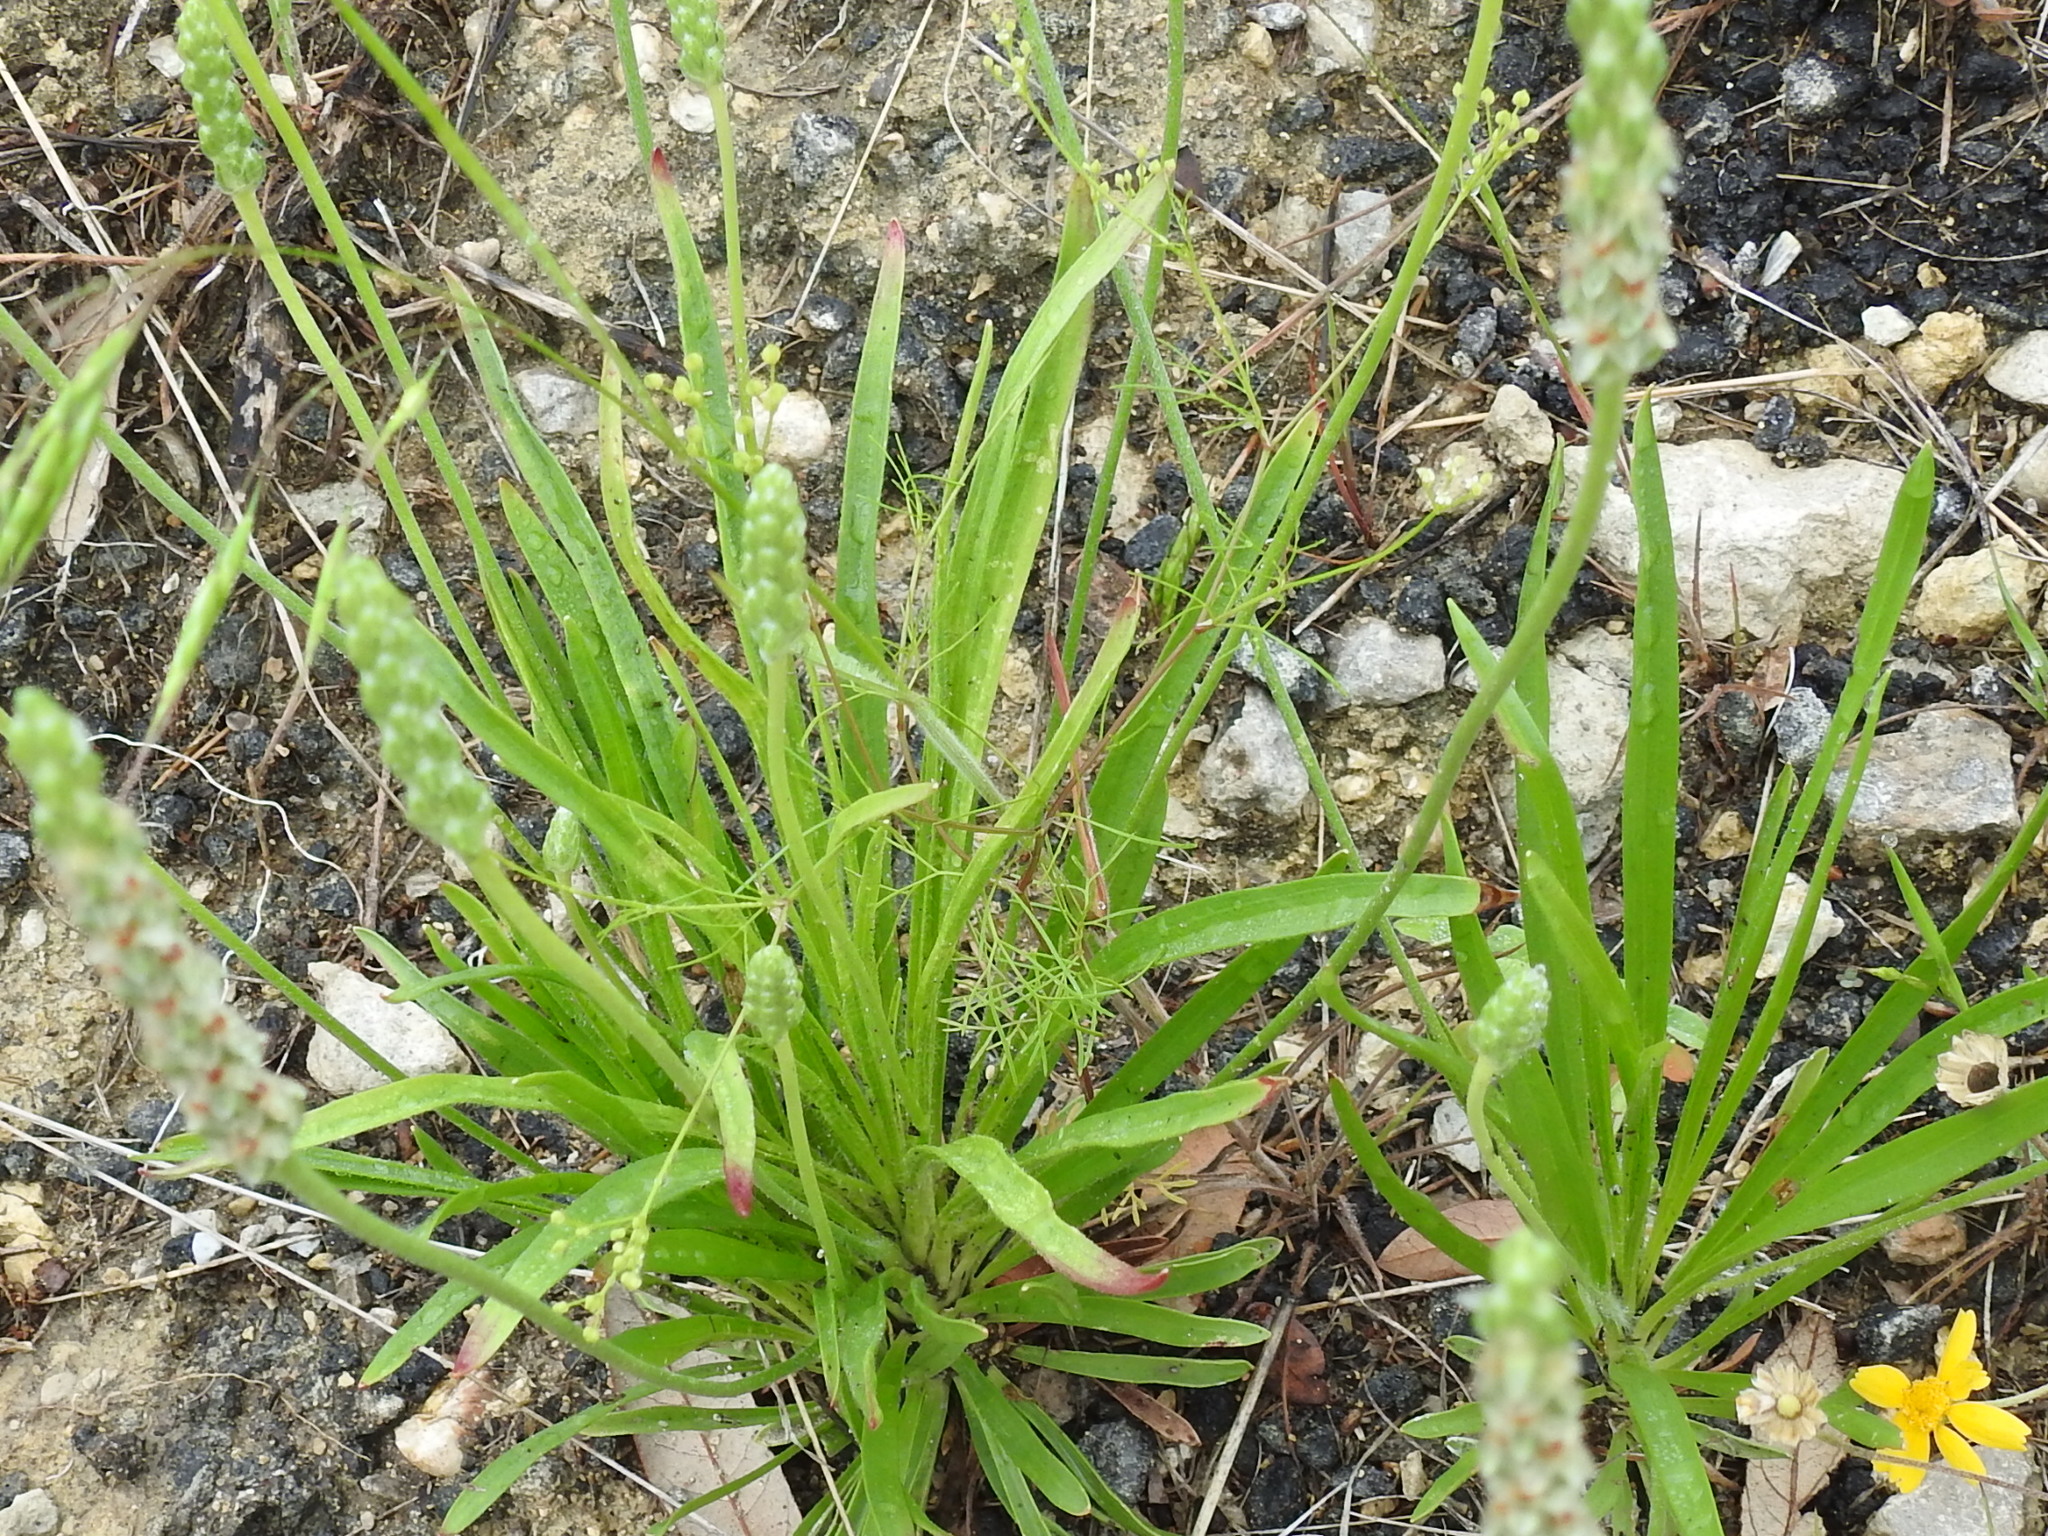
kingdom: Plantae
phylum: Tracheophyta
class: Magnoliopsida
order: Apiales
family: Apiaceae
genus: Spermolepis
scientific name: Spermolepis echinata
